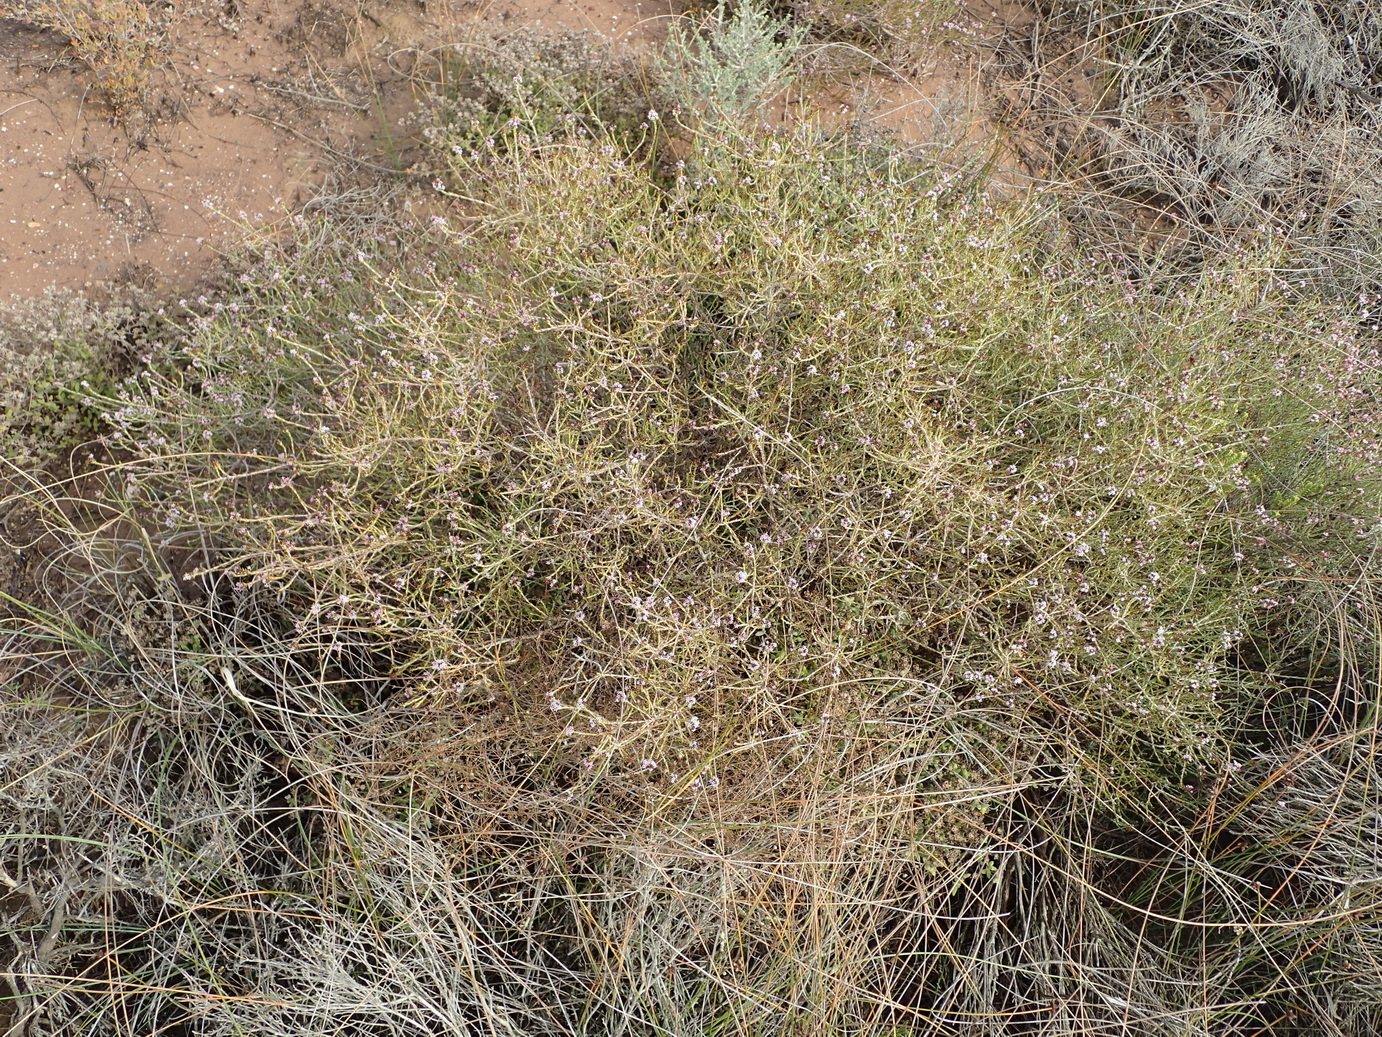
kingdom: Plantae
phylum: Tracheophyta
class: Magnoliopsida
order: Asterales
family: Asteraceae
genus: Stoebe
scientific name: Stoebe rugulosa
